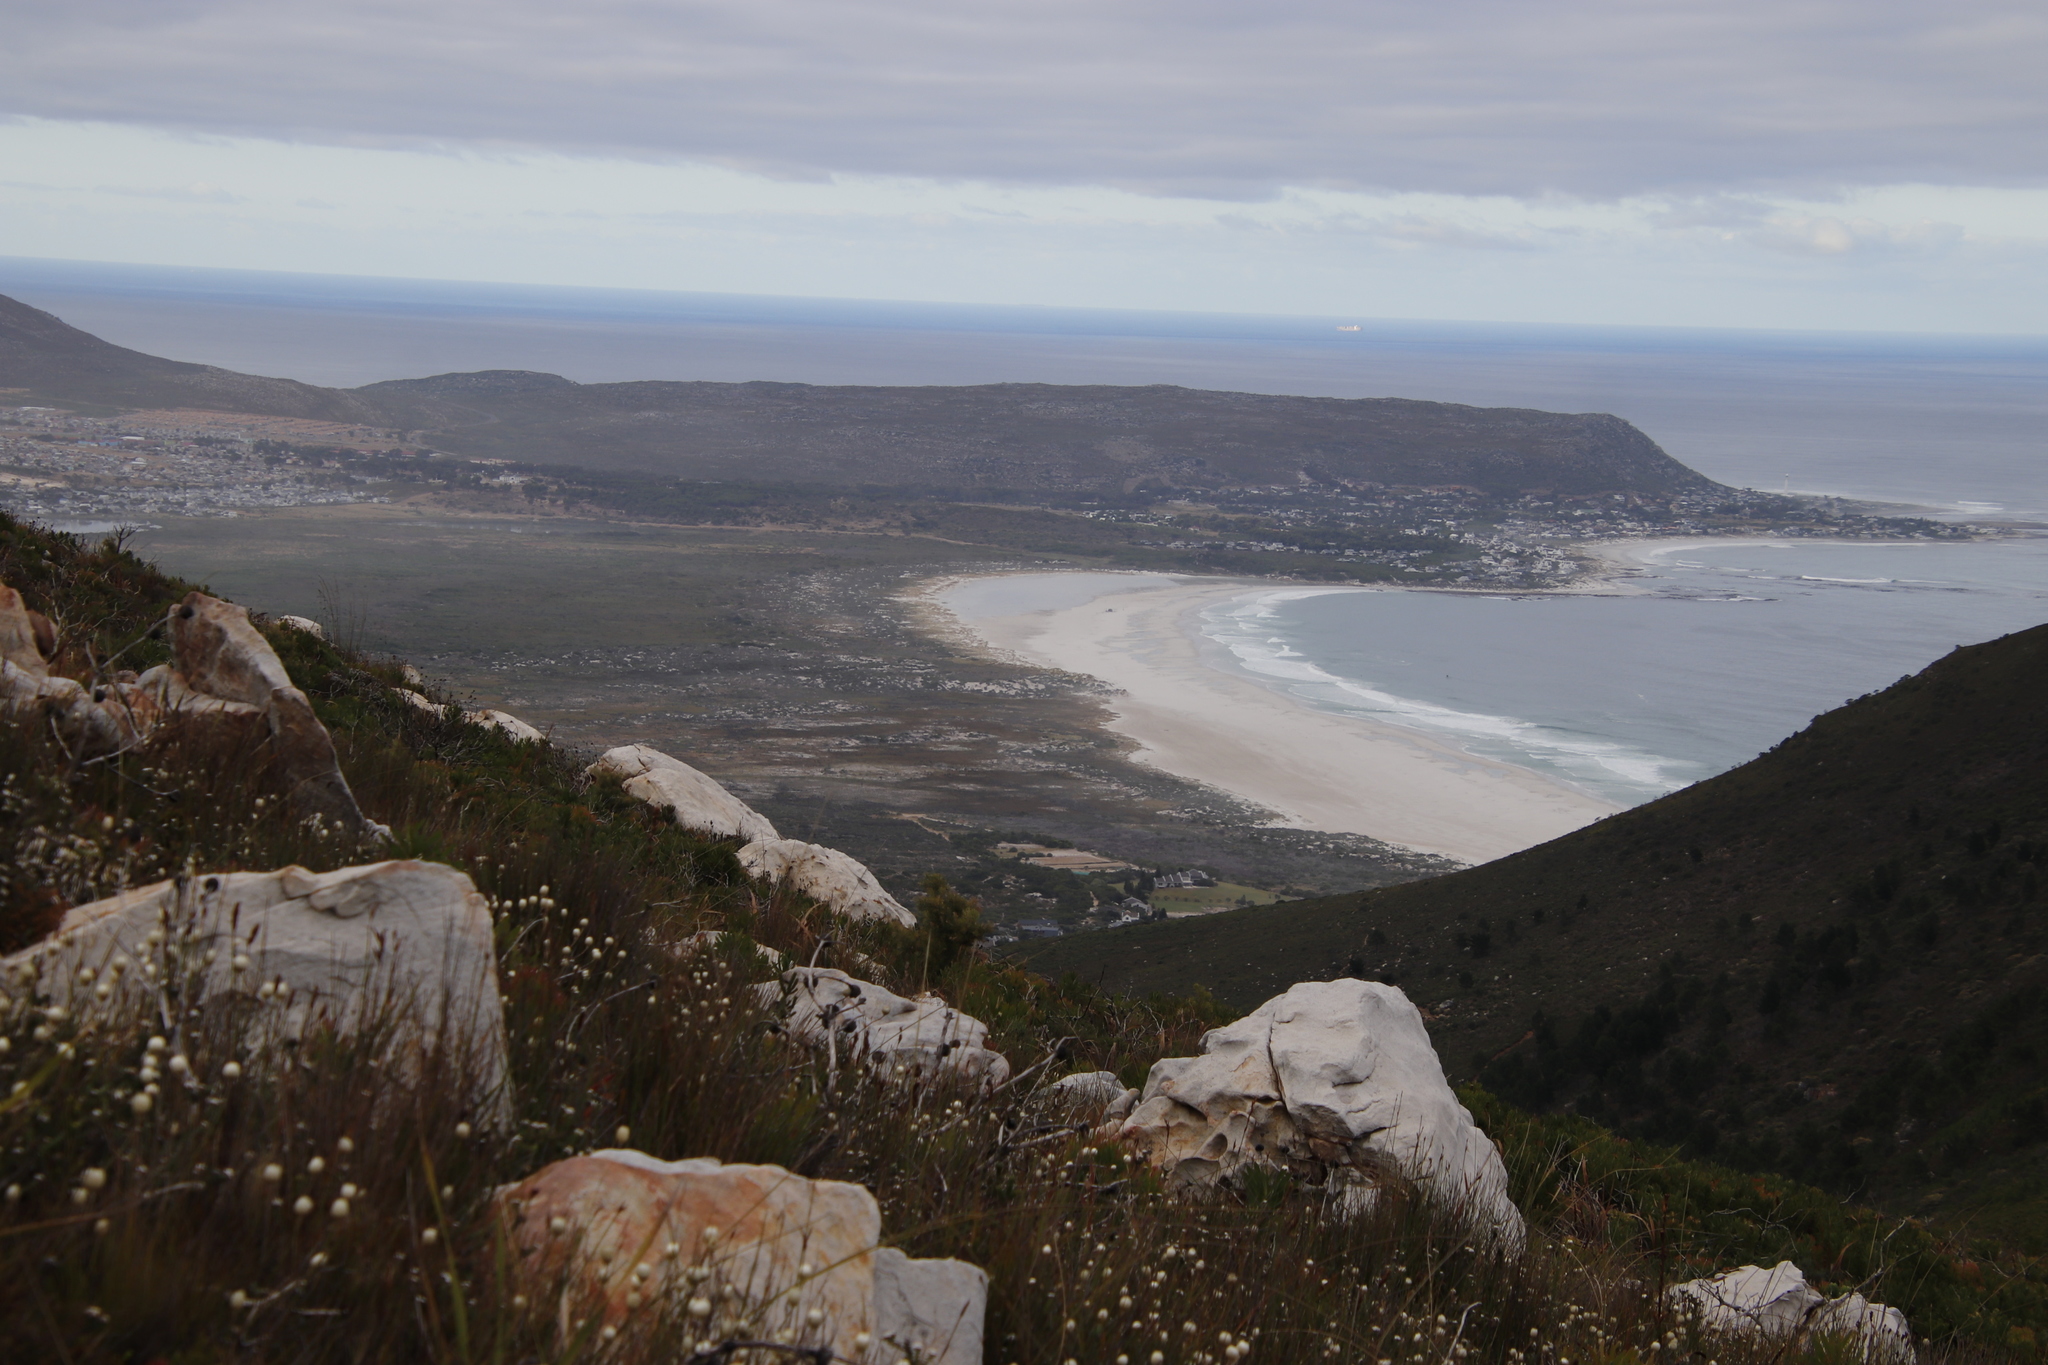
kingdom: Plantae
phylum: Tracheophyta
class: Magnoliopsida
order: Asterales
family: Asteraceae
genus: Edmondia
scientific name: Edmondia sesamoides
